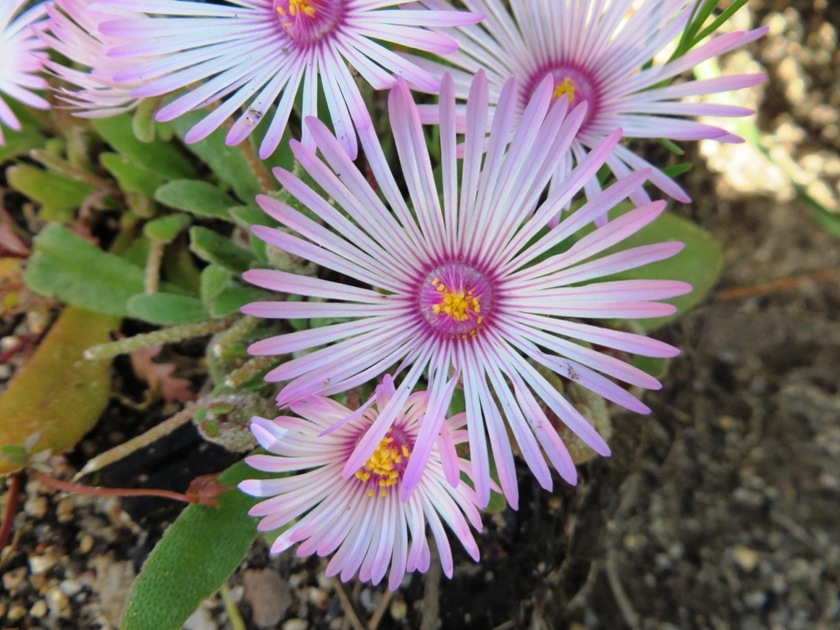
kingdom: Plantae
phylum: Tracheophyta
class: Magnoliopsida
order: Caryophyllales
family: Aizoaceae
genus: Cleretum
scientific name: Cleretum bellidiforme
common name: Livingstone daisy
